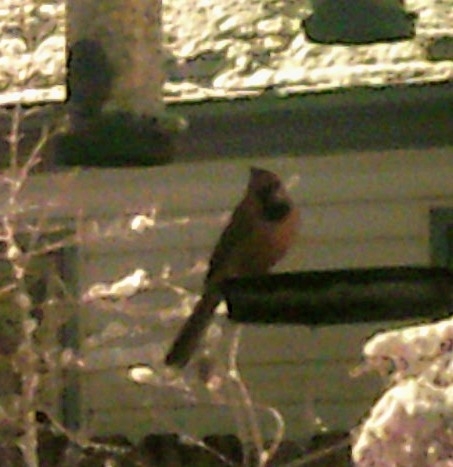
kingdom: Animalia
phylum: Chordata
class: Aves
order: Passeriformes
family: Cardinalidae
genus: Cardinalis
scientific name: Cardinalis cardinalis
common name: Northern cardinal
